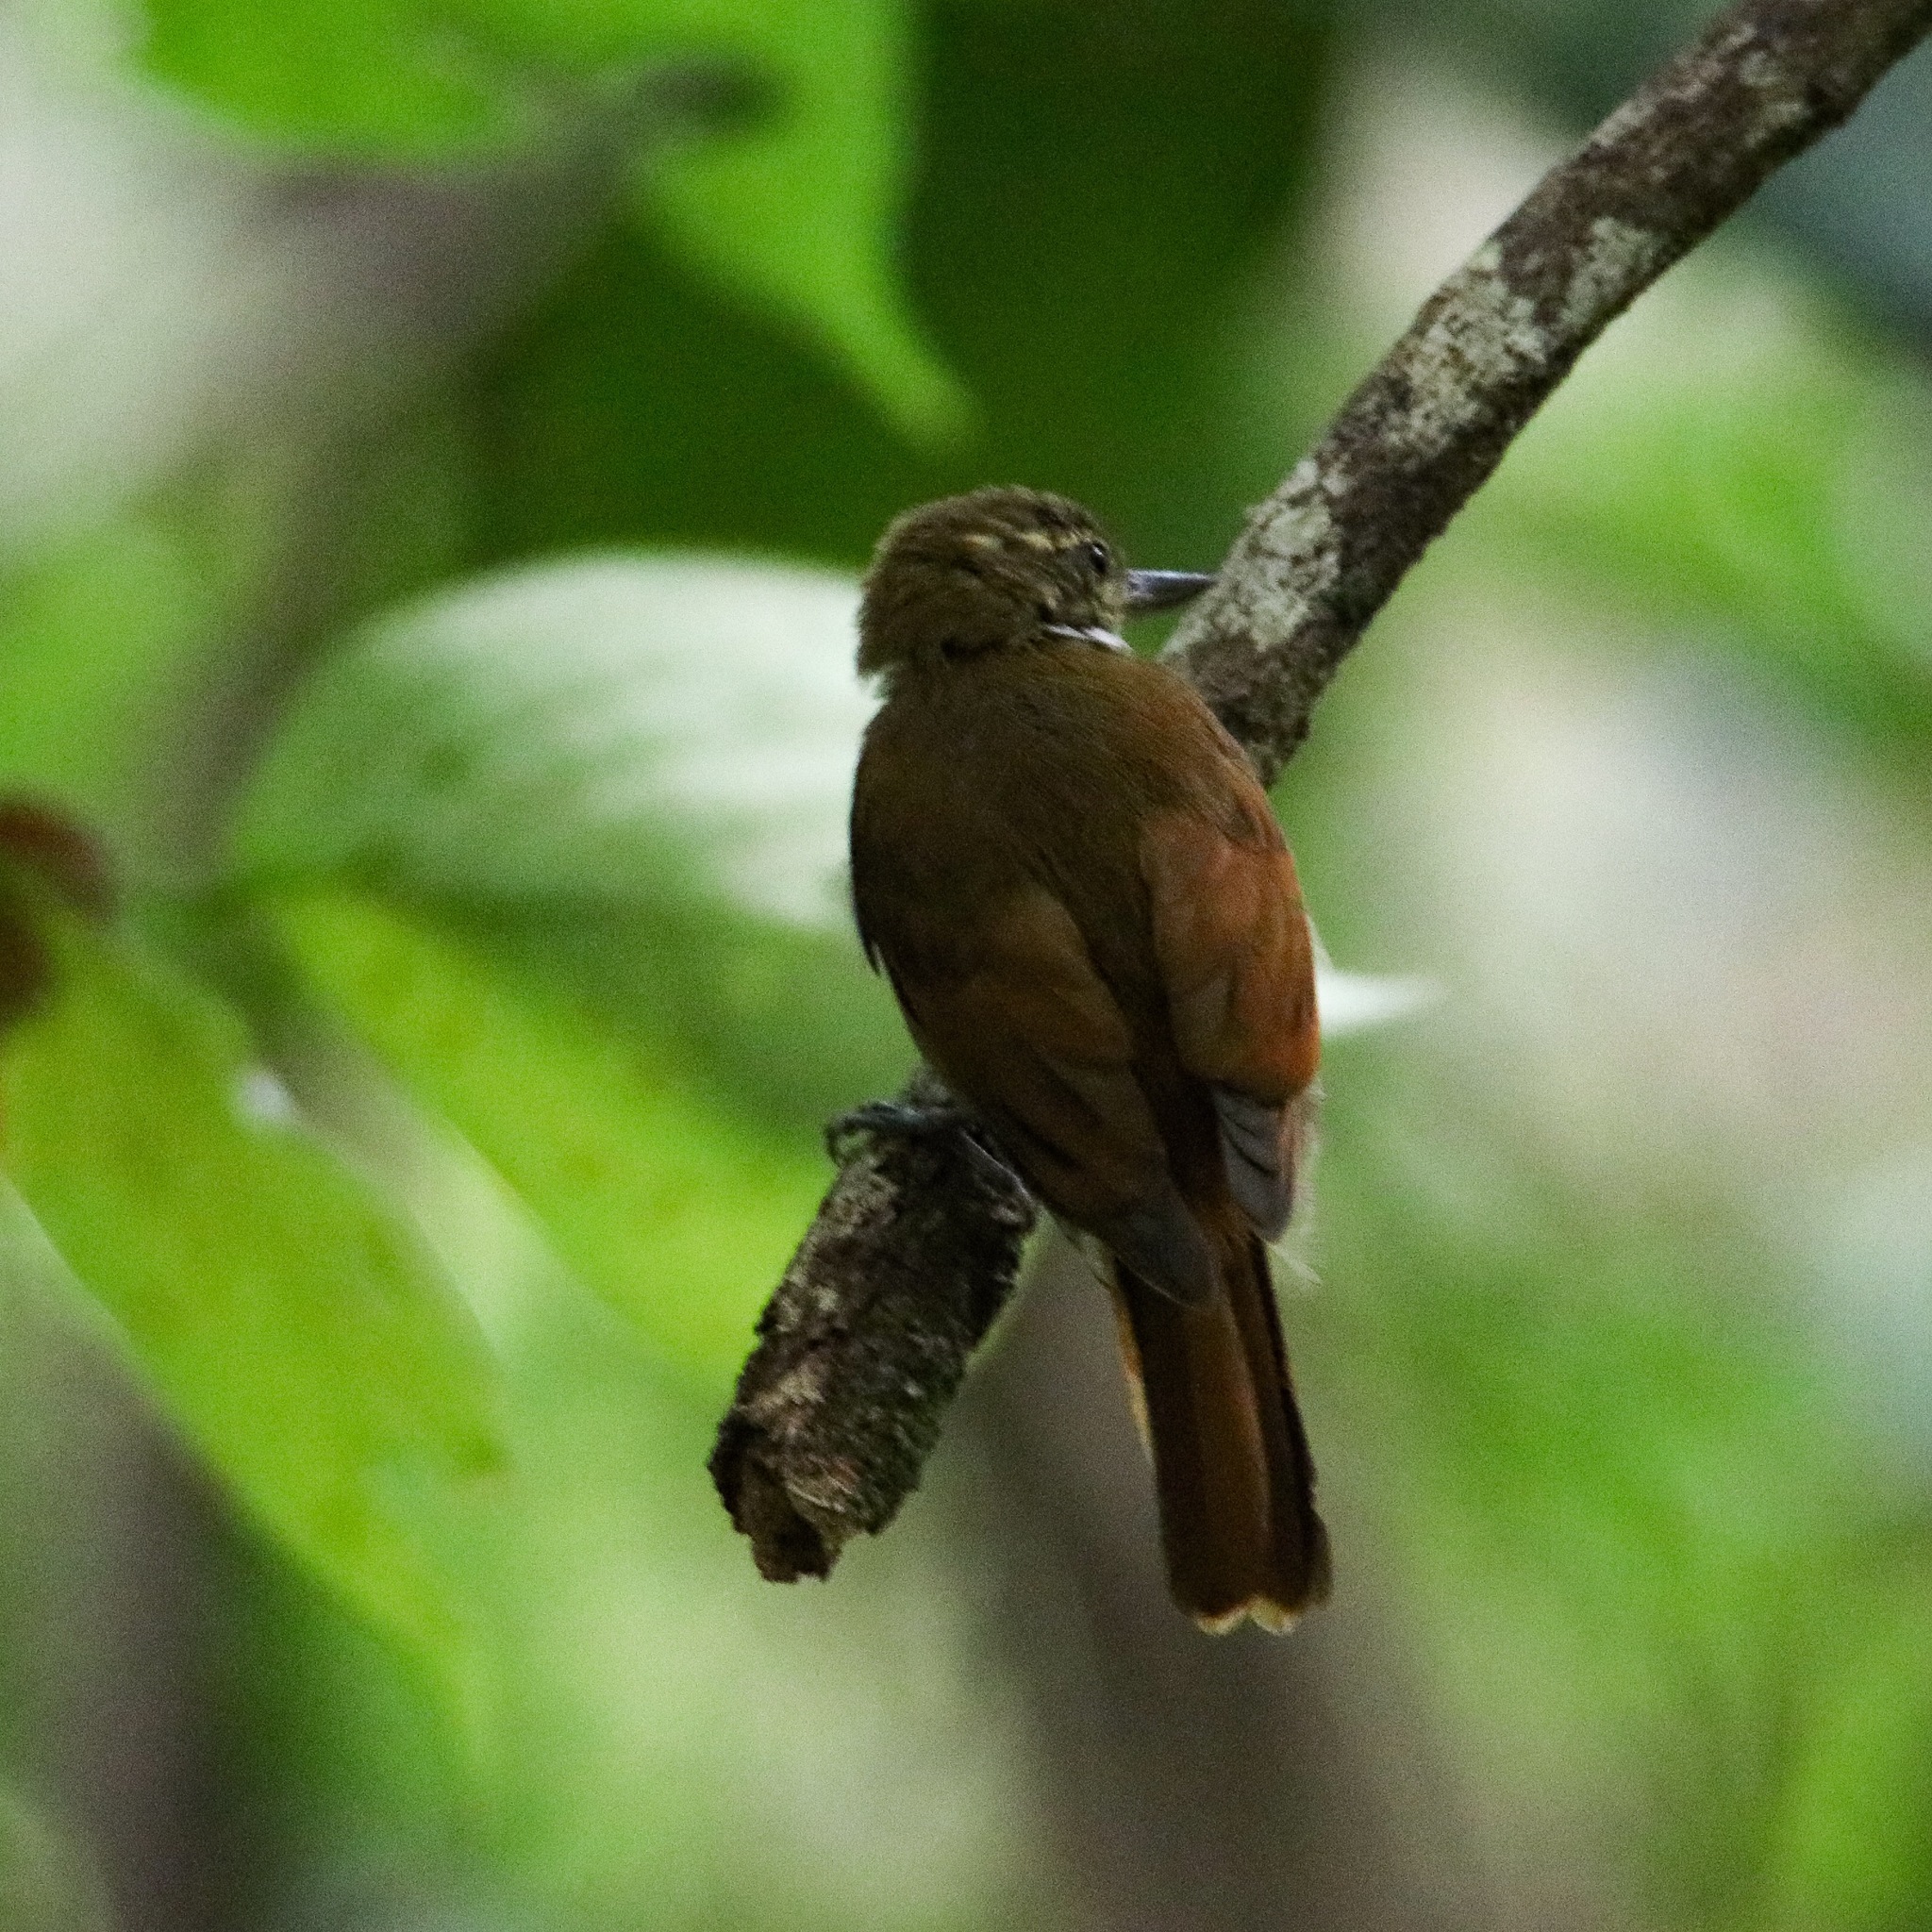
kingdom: Animalia
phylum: Chordata
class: Aves
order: Passeriformes
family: Furnariidae
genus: Xenops
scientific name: Xenops minutus
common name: Plain xenops
